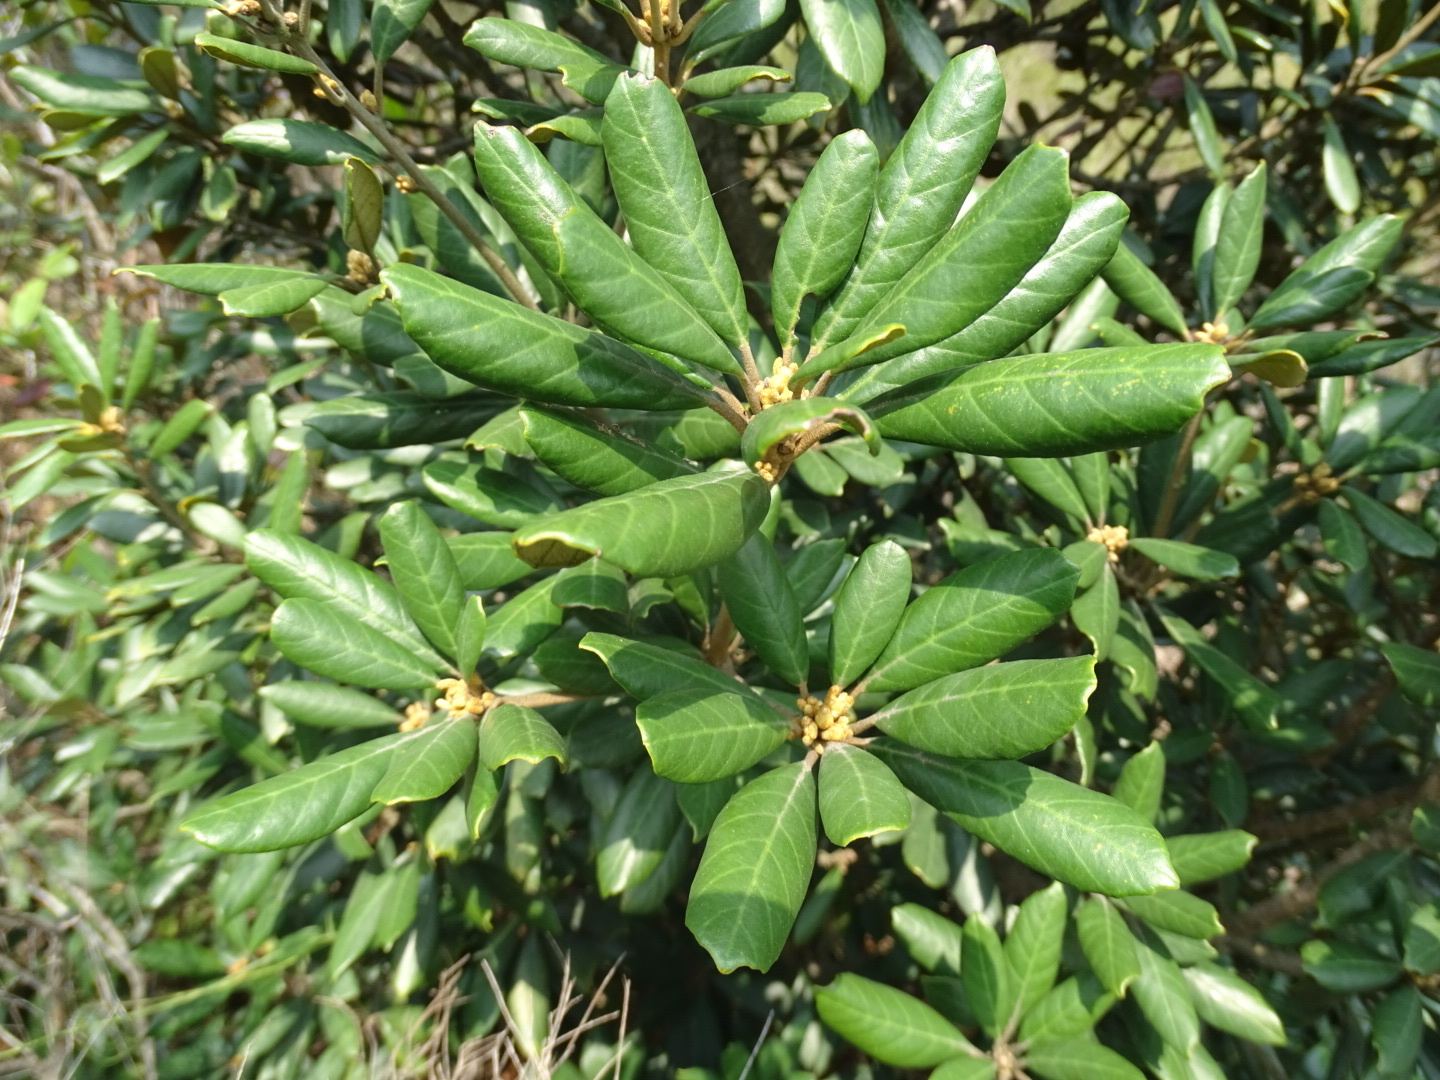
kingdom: Plantae
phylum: Tracheophyta
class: Magnoliopsida
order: Fagales
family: Fagaceae
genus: Quercus
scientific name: Quercus championii
